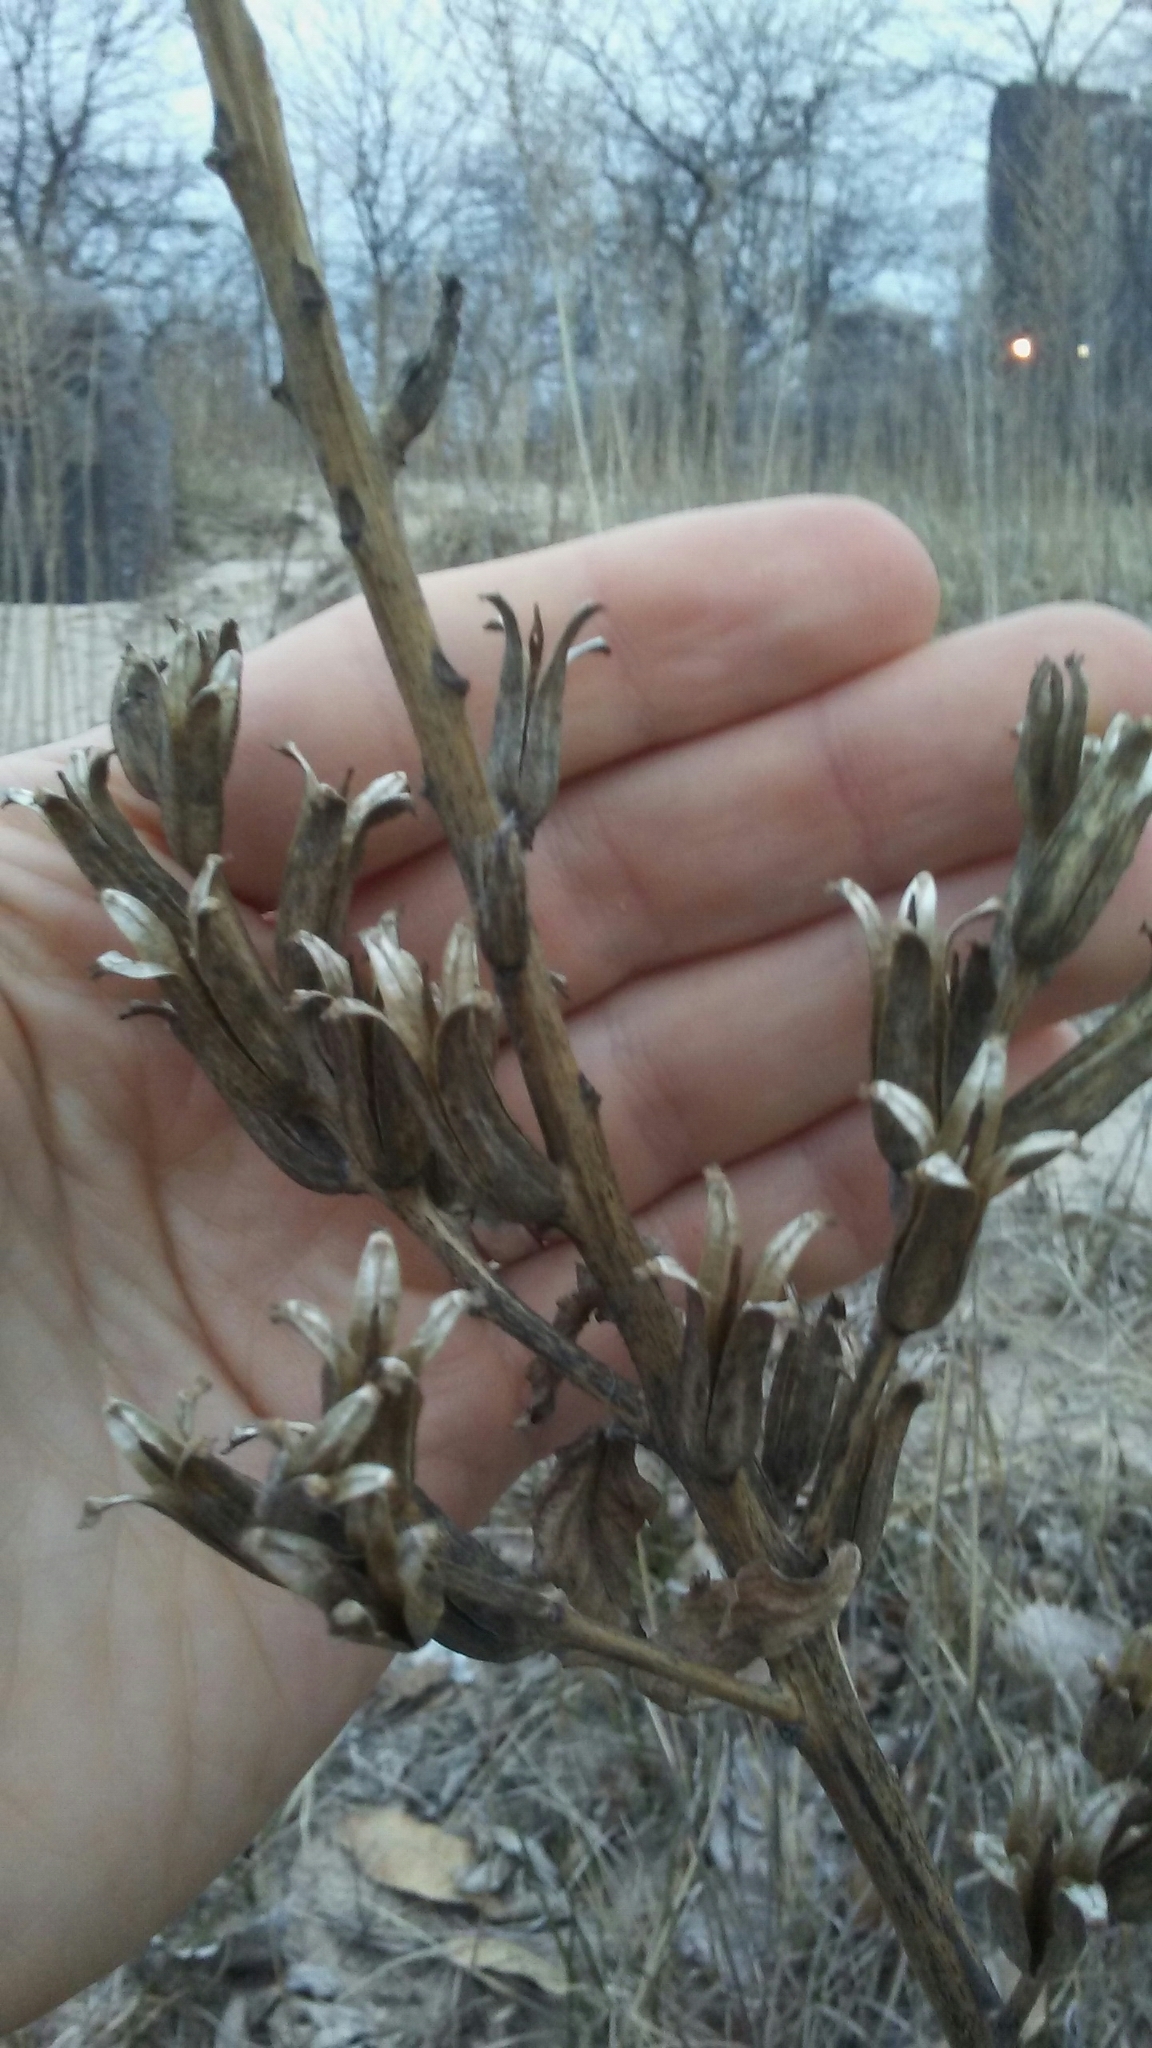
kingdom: Plantae
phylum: Tracheophyta
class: Magnoliopsida
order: Myrtales
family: Onagraceae
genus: Oenothera
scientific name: Oenothera biennis
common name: Common evening-primrose
